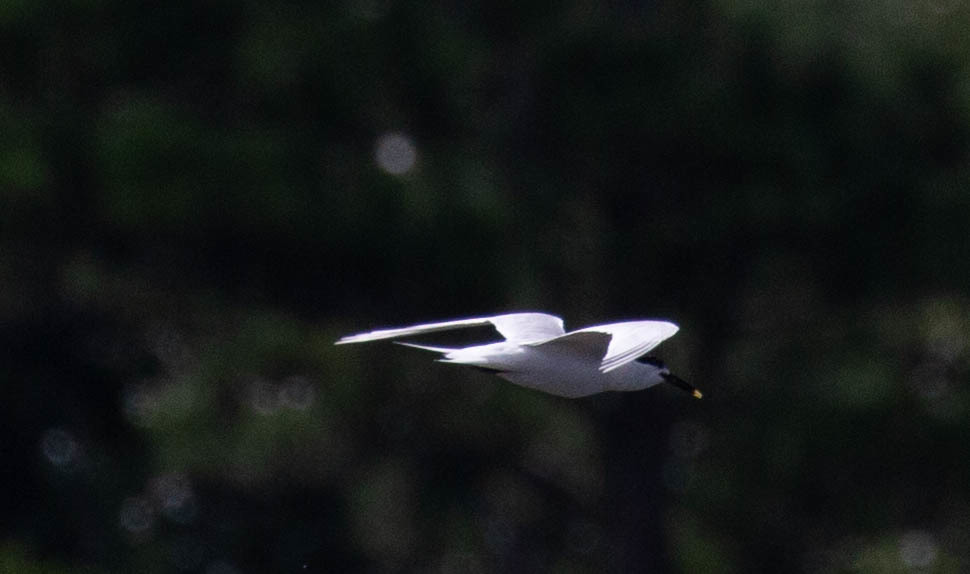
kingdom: Animalia
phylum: Chordata
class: Aves
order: Charadriiformes
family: Laridae
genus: Thalasseus
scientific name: Thalasseus sandvicensis
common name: Sandwich tern
